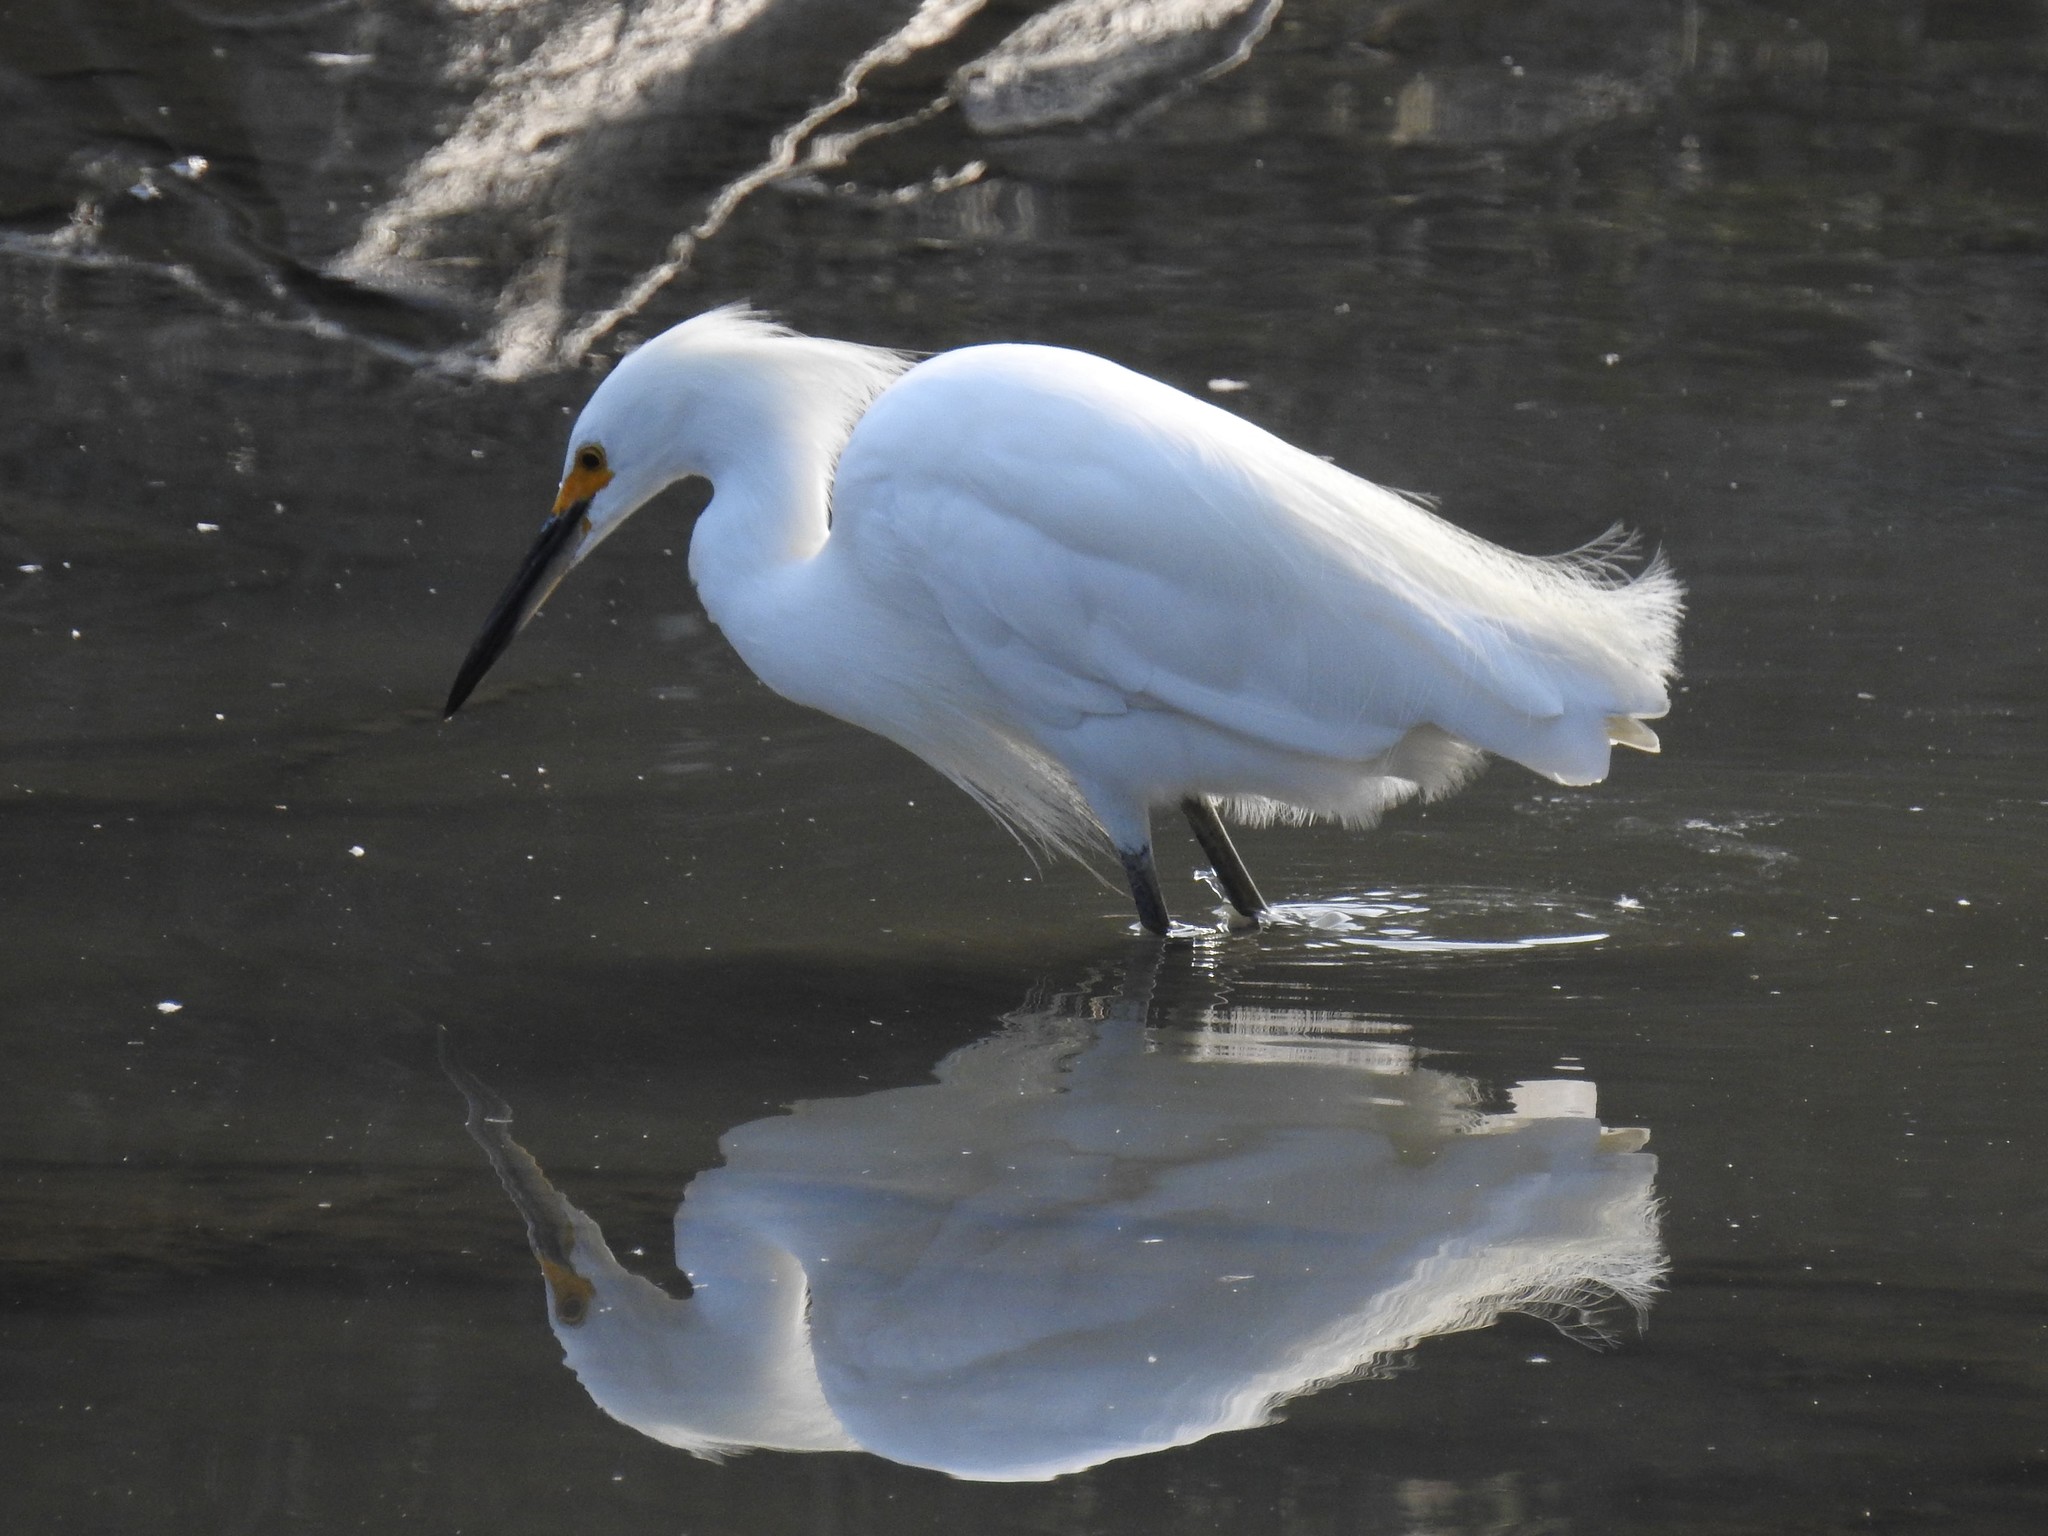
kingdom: Animalia
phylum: Chordata
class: Aves
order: Pelecaniformes
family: Ardeidae
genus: Egretta
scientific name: Egretta thula
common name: Snowy egret
